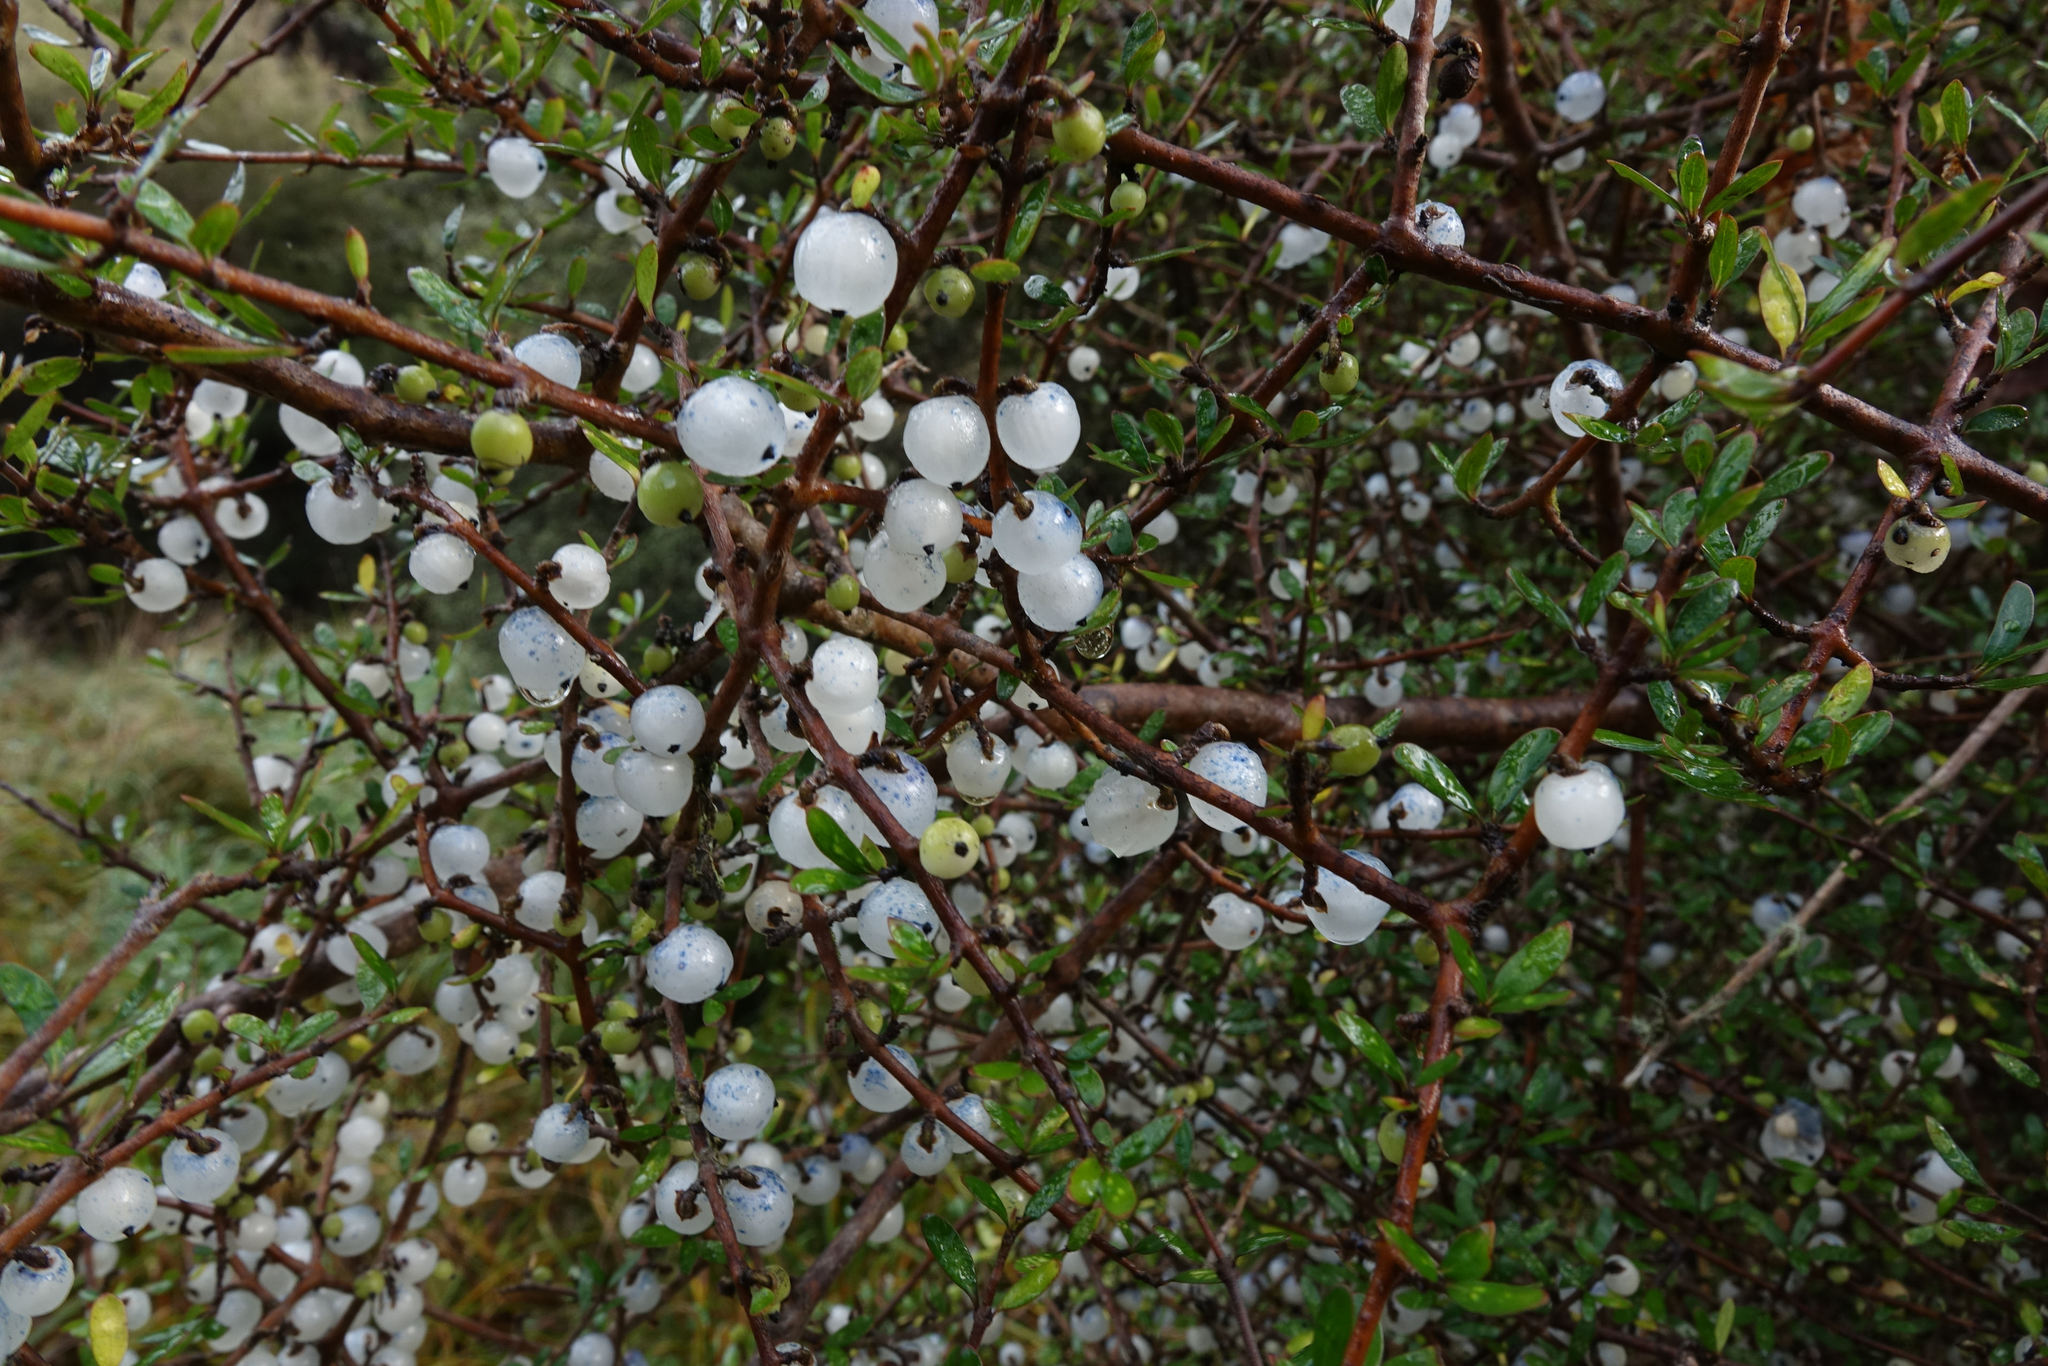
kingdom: Plantae
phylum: Tracheophyta
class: Magnoliopsida
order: Gentianales
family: Rubiaceae
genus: Coprosma
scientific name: Coprosma propinqua
